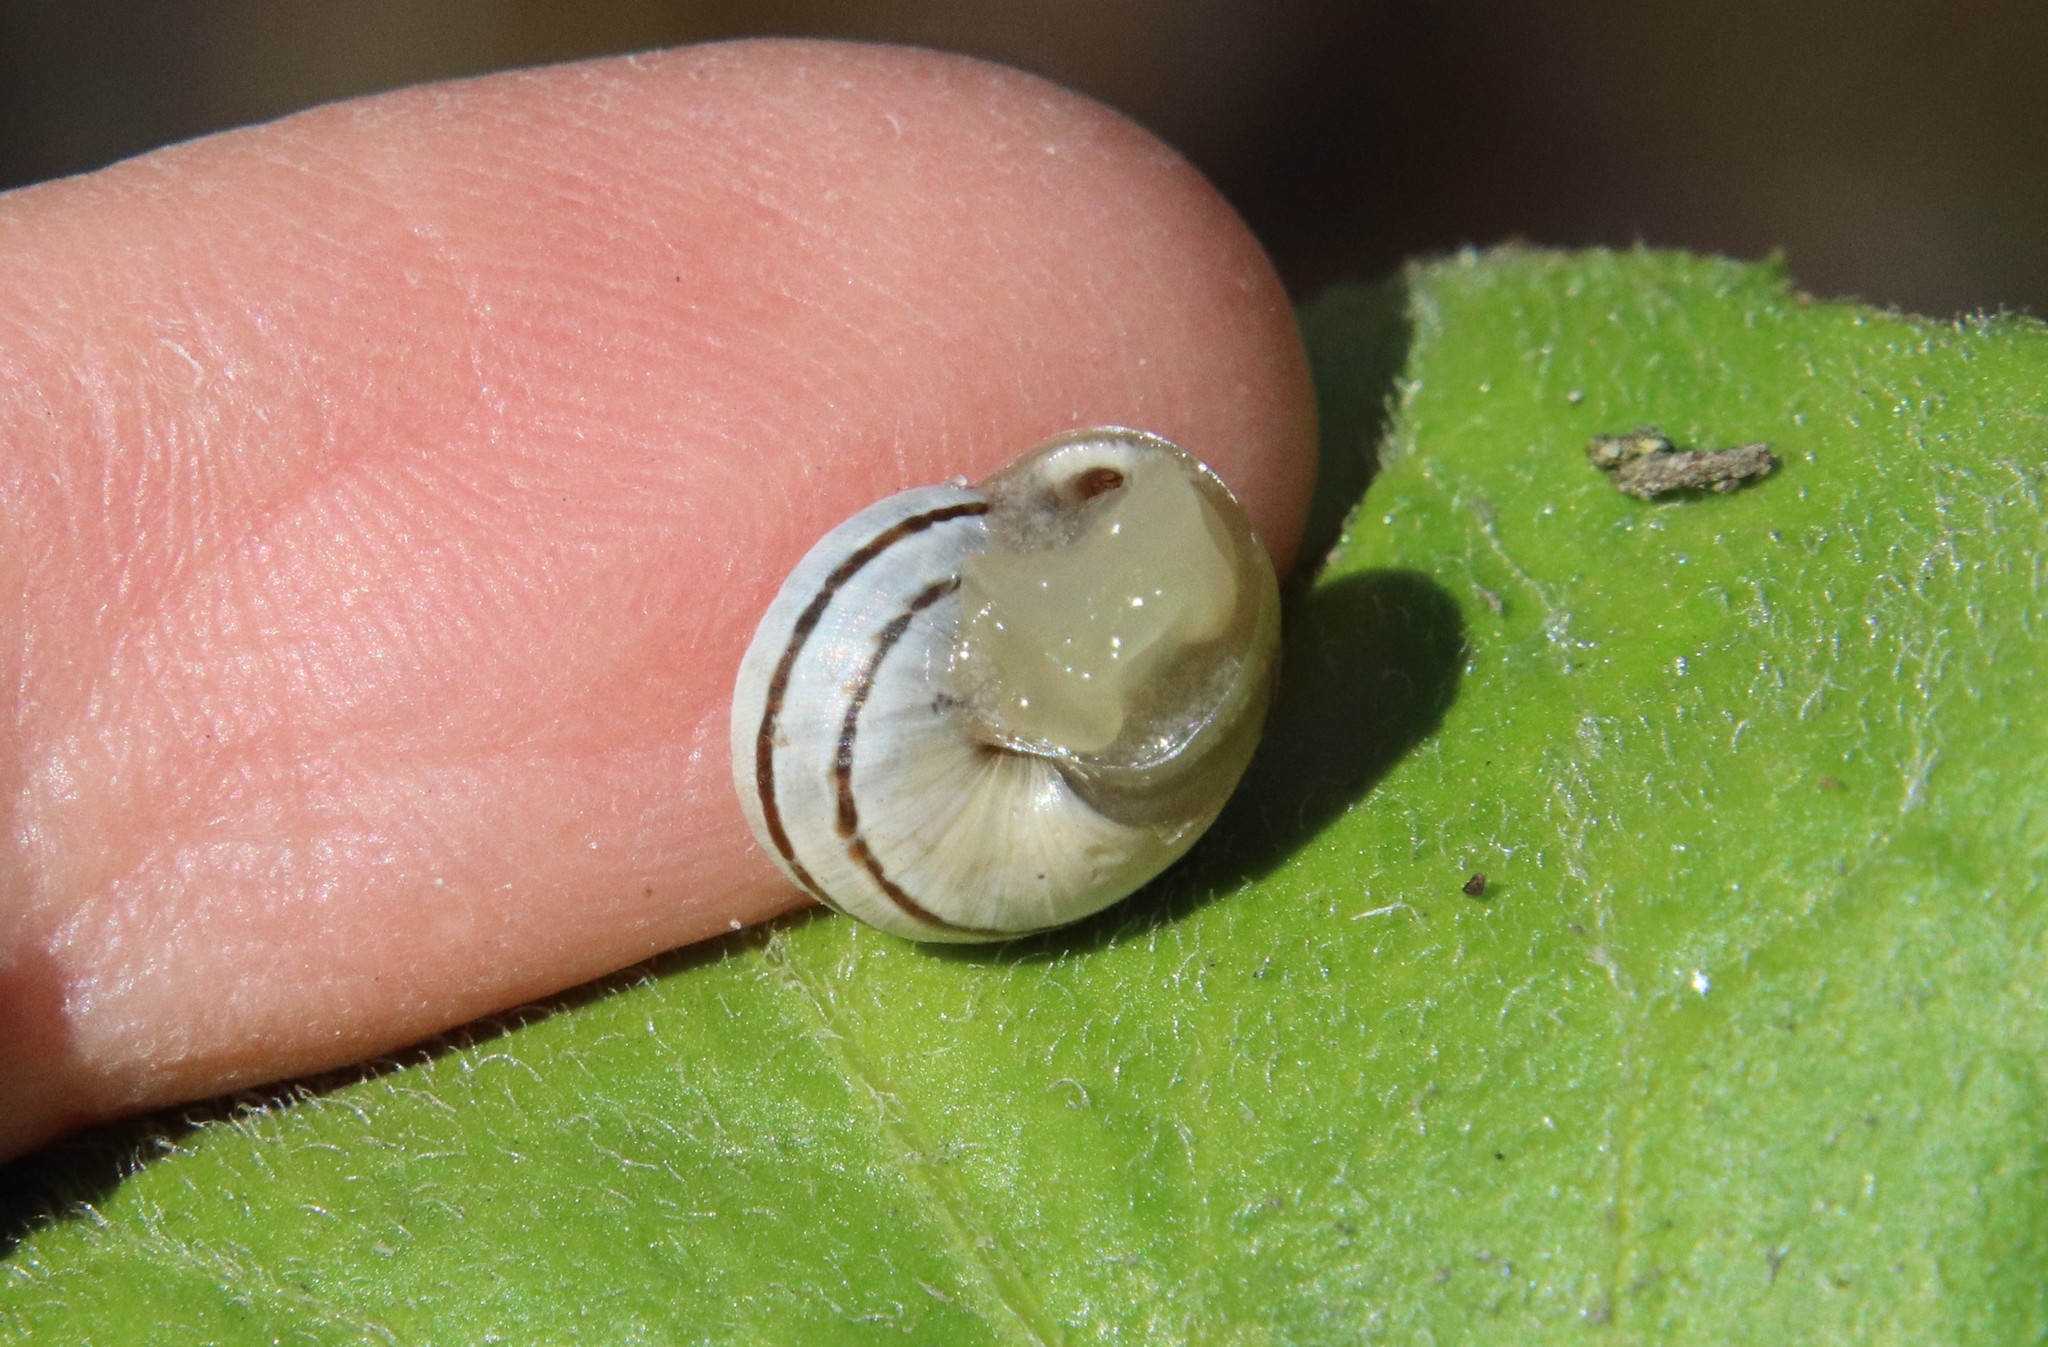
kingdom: Animalia
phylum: Mollusca
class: Gastropoda
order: Stylommatophora
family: Helicidae
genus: Otala
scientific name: Otala lactea
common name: Milk snail
